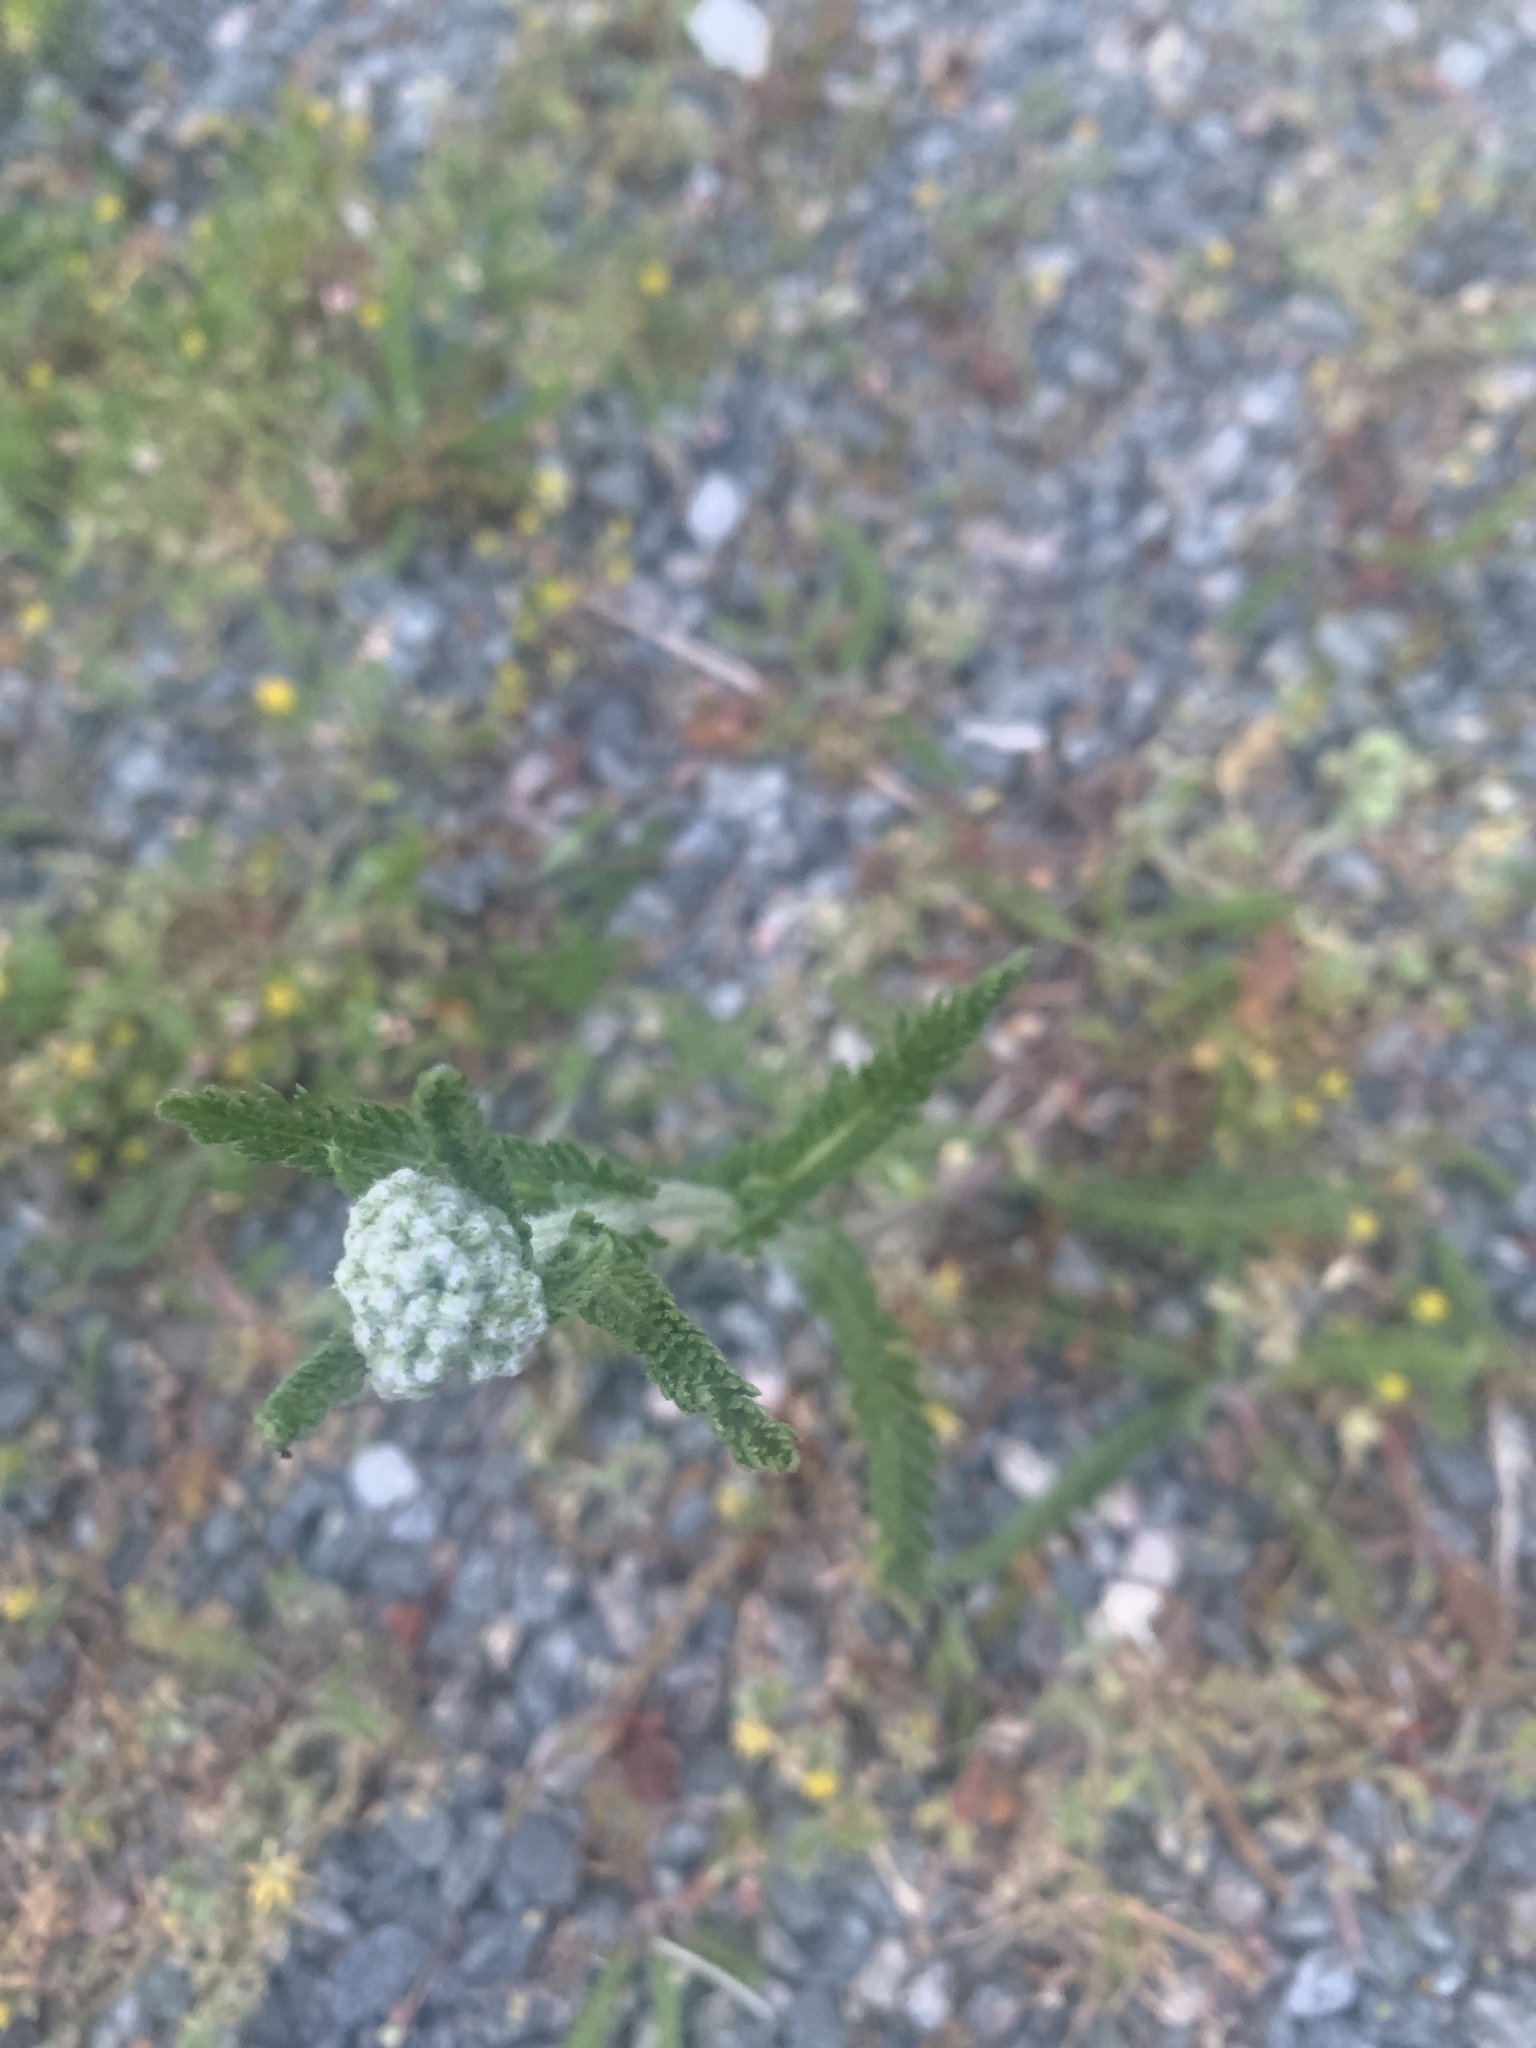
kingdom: Plantae
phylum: Tracheophyta
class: Magnoliopsida
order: Asterales
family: Asteraceae
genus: Achillea
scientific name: Achillea millefolium
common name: Yarrow
